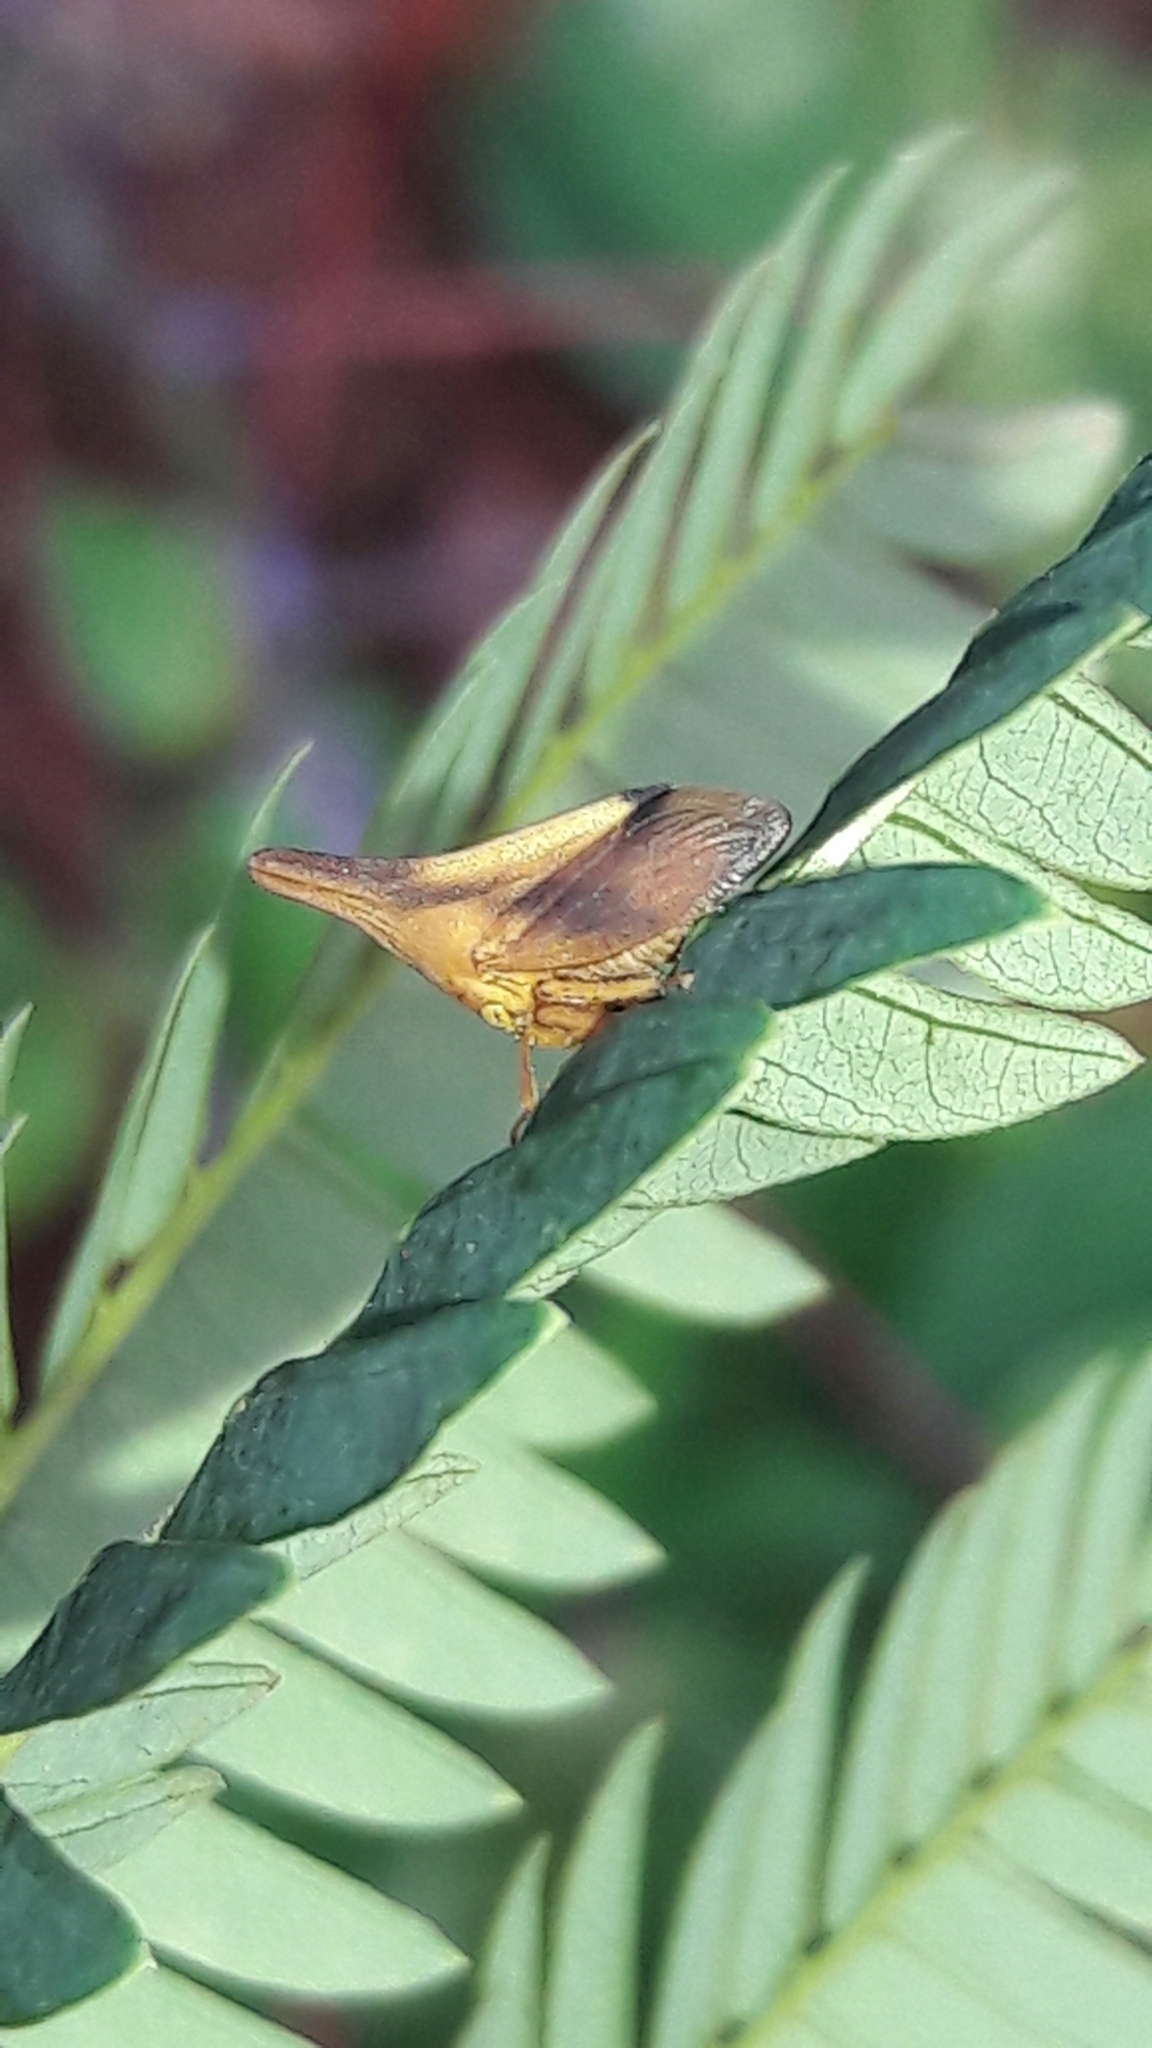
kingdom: Animalia
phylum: Arthropoda
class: Insecta
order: Hemiptera
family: Membracidae
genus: Enchenopa
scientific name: Enchenopa concolor
